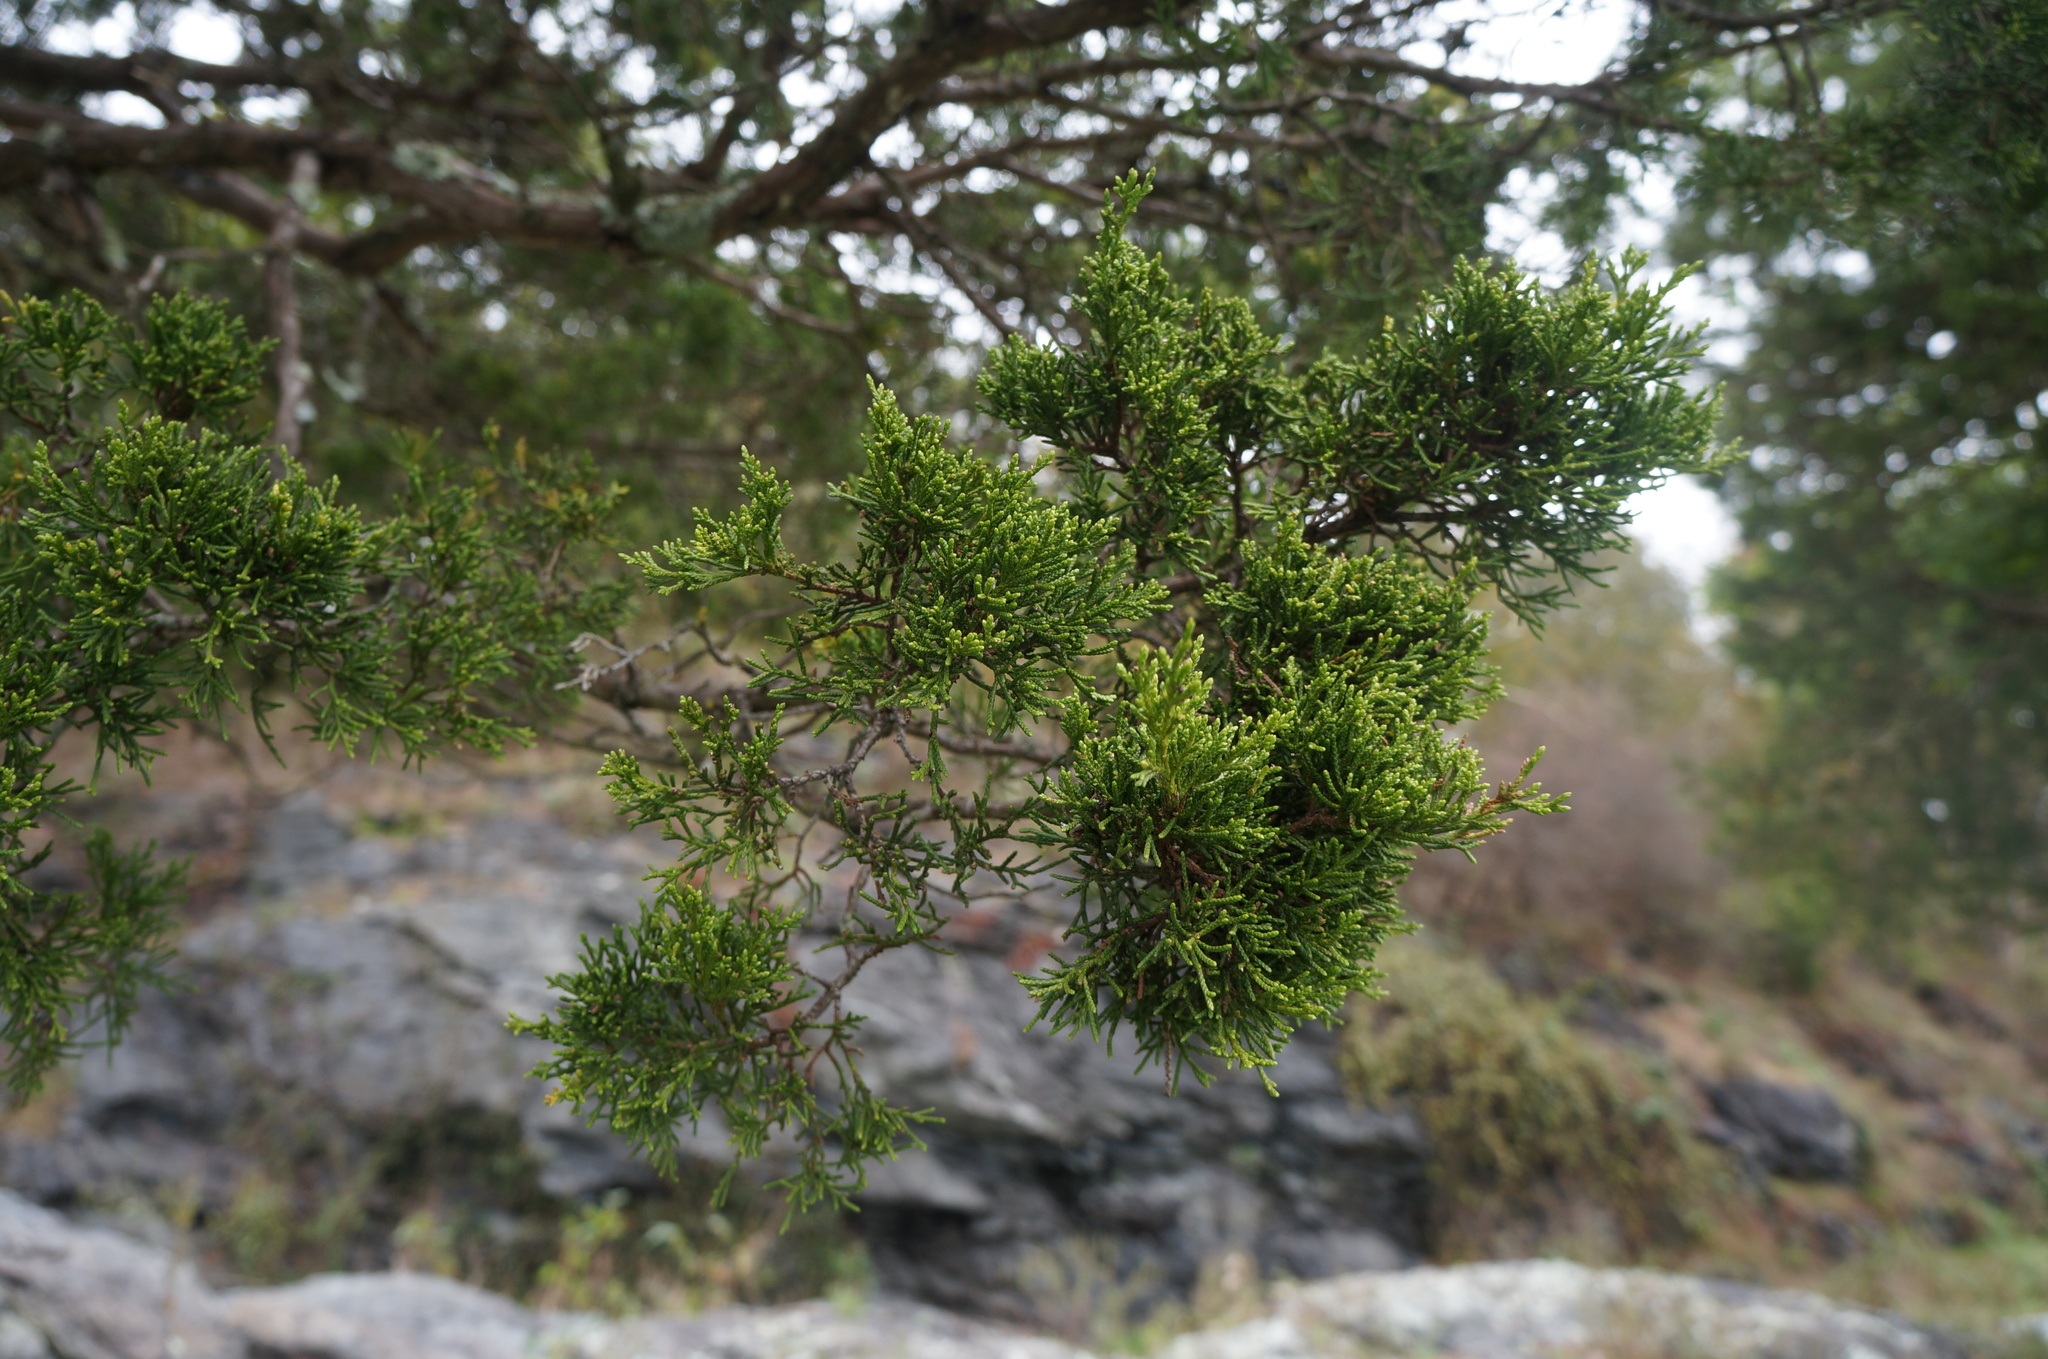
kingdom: Plantae
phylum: Tracheophyta
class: Pinopsida
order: Pinales
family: Cupressaceae
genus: Juniperus
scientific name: Juniperus virginiana
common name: Red juniper
